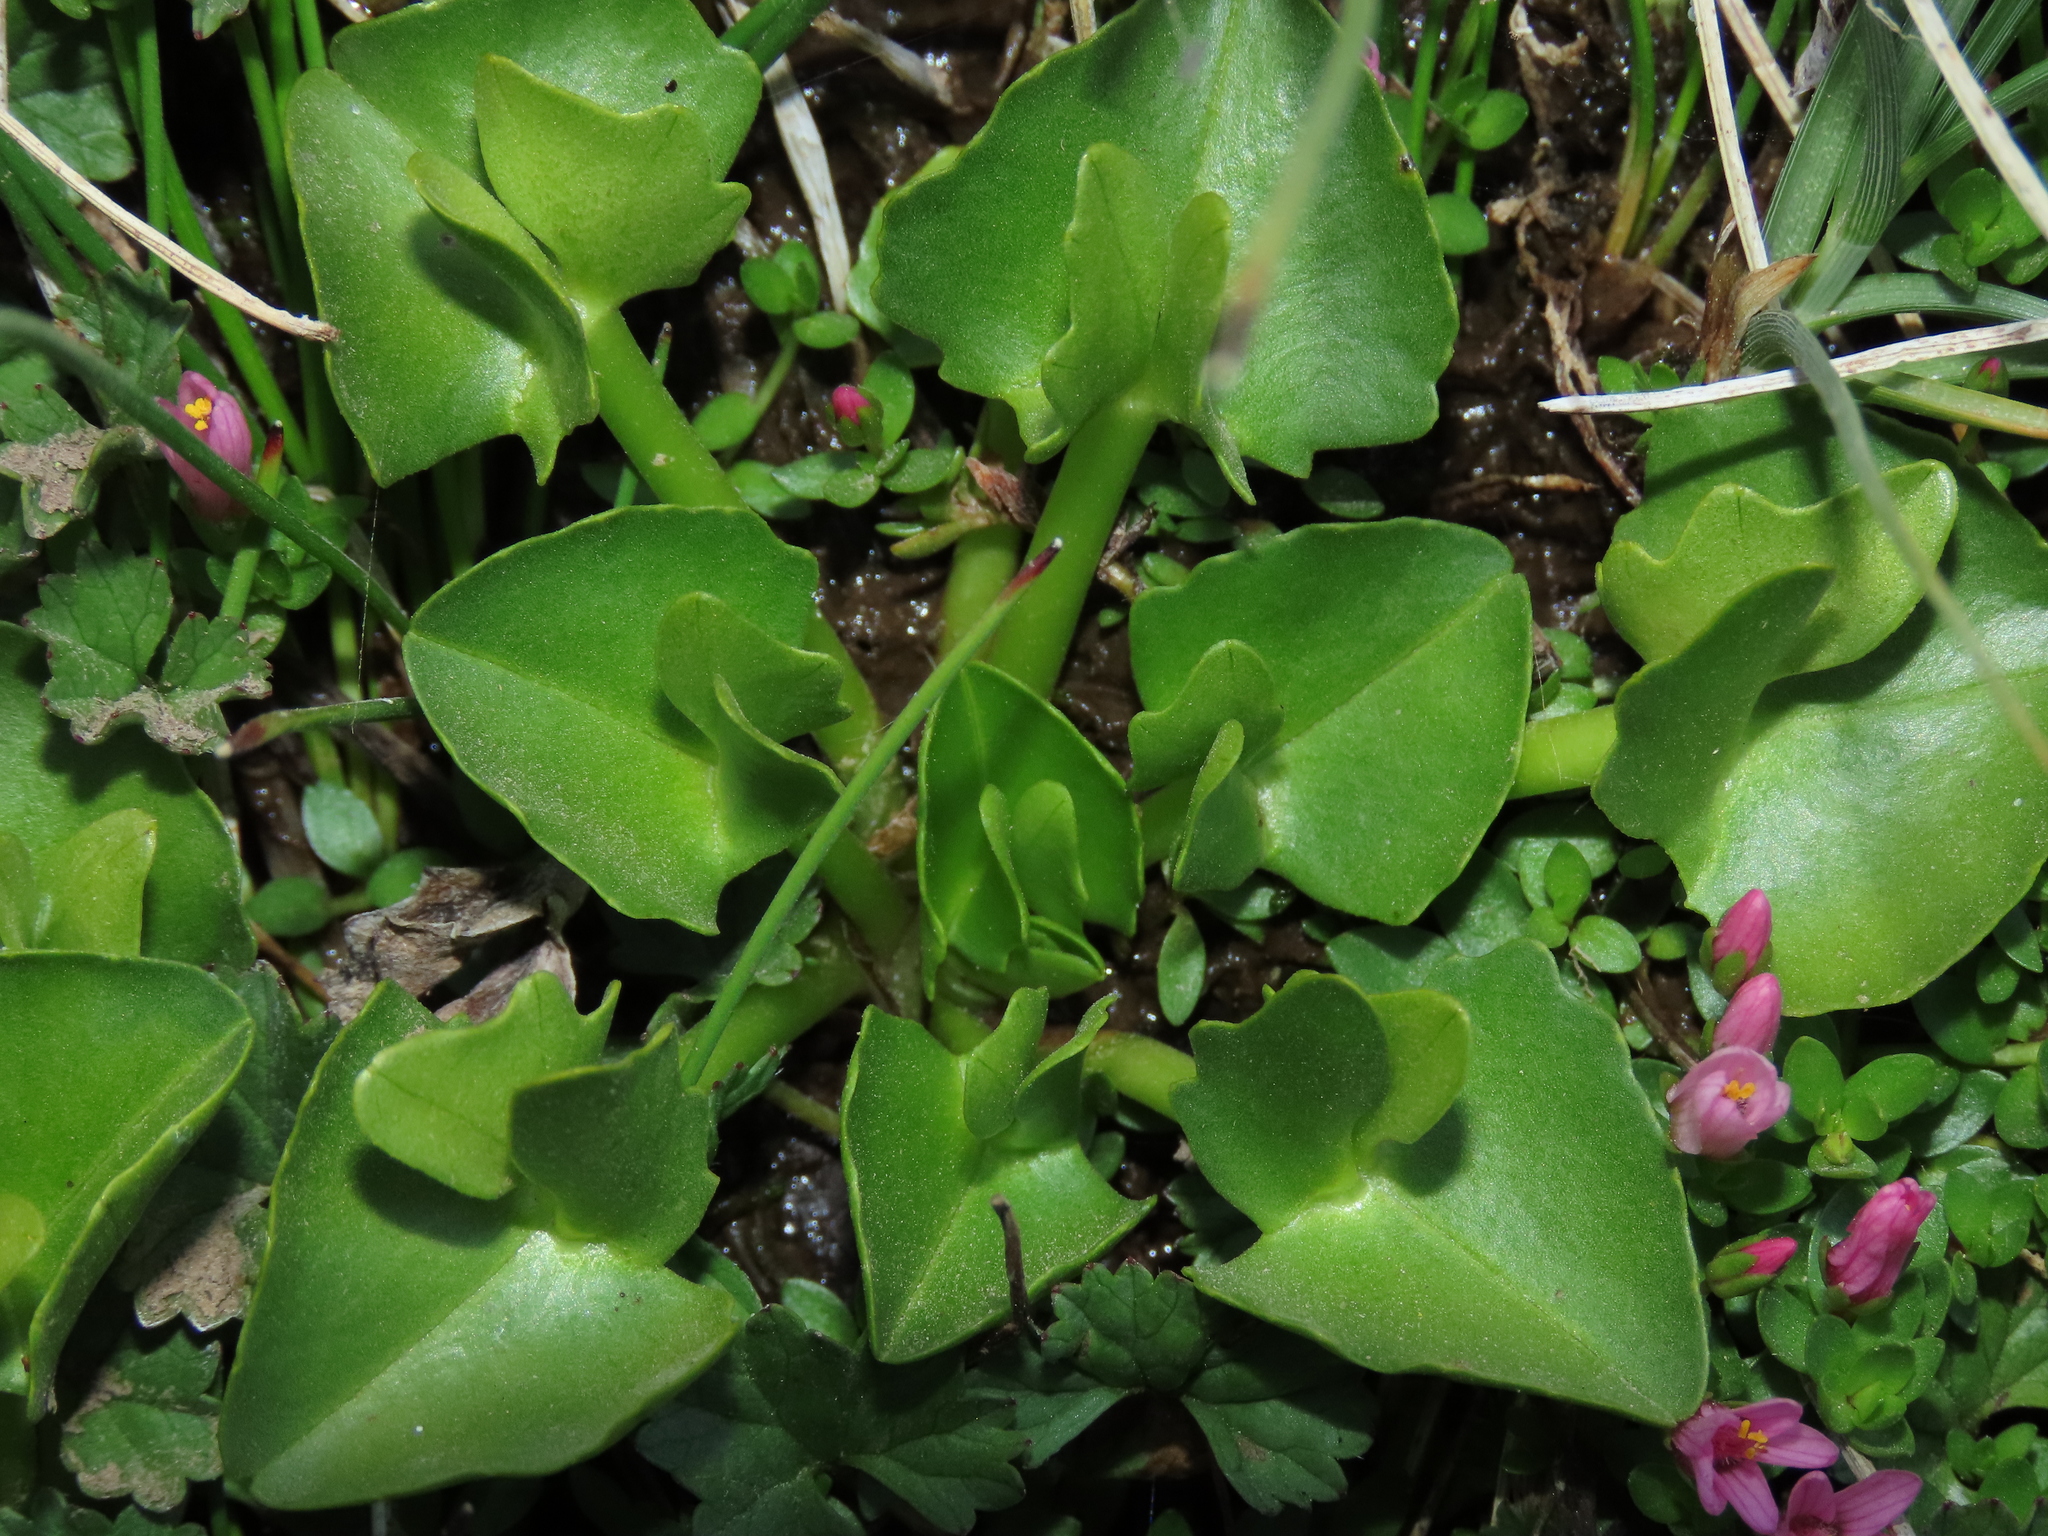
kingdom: Plantae
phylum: Tracheophyta
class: Magnoliopsida
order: Ranunculales
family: Ranunculaceae
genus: Caltha
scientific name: Caltha sagittata
